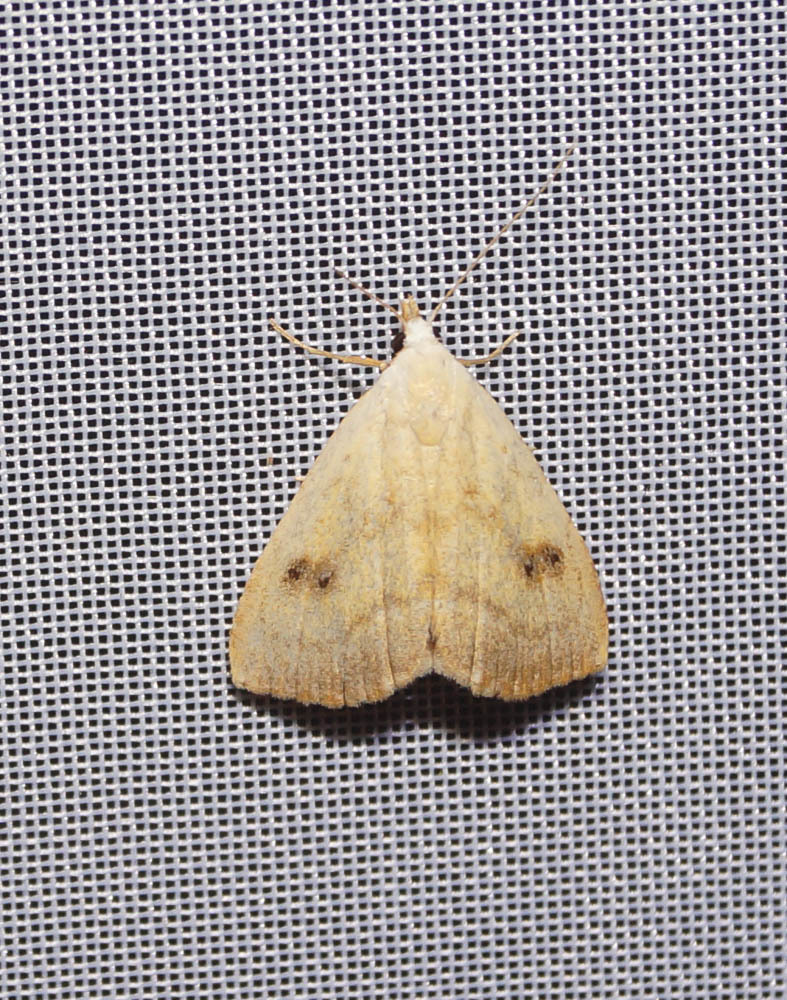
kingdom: Animalia
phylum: Arthropoda
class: Insecta
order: Lepidoptera
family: Erebidae
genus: Rivula
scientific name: Rivula sericealis
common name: Straw dot
